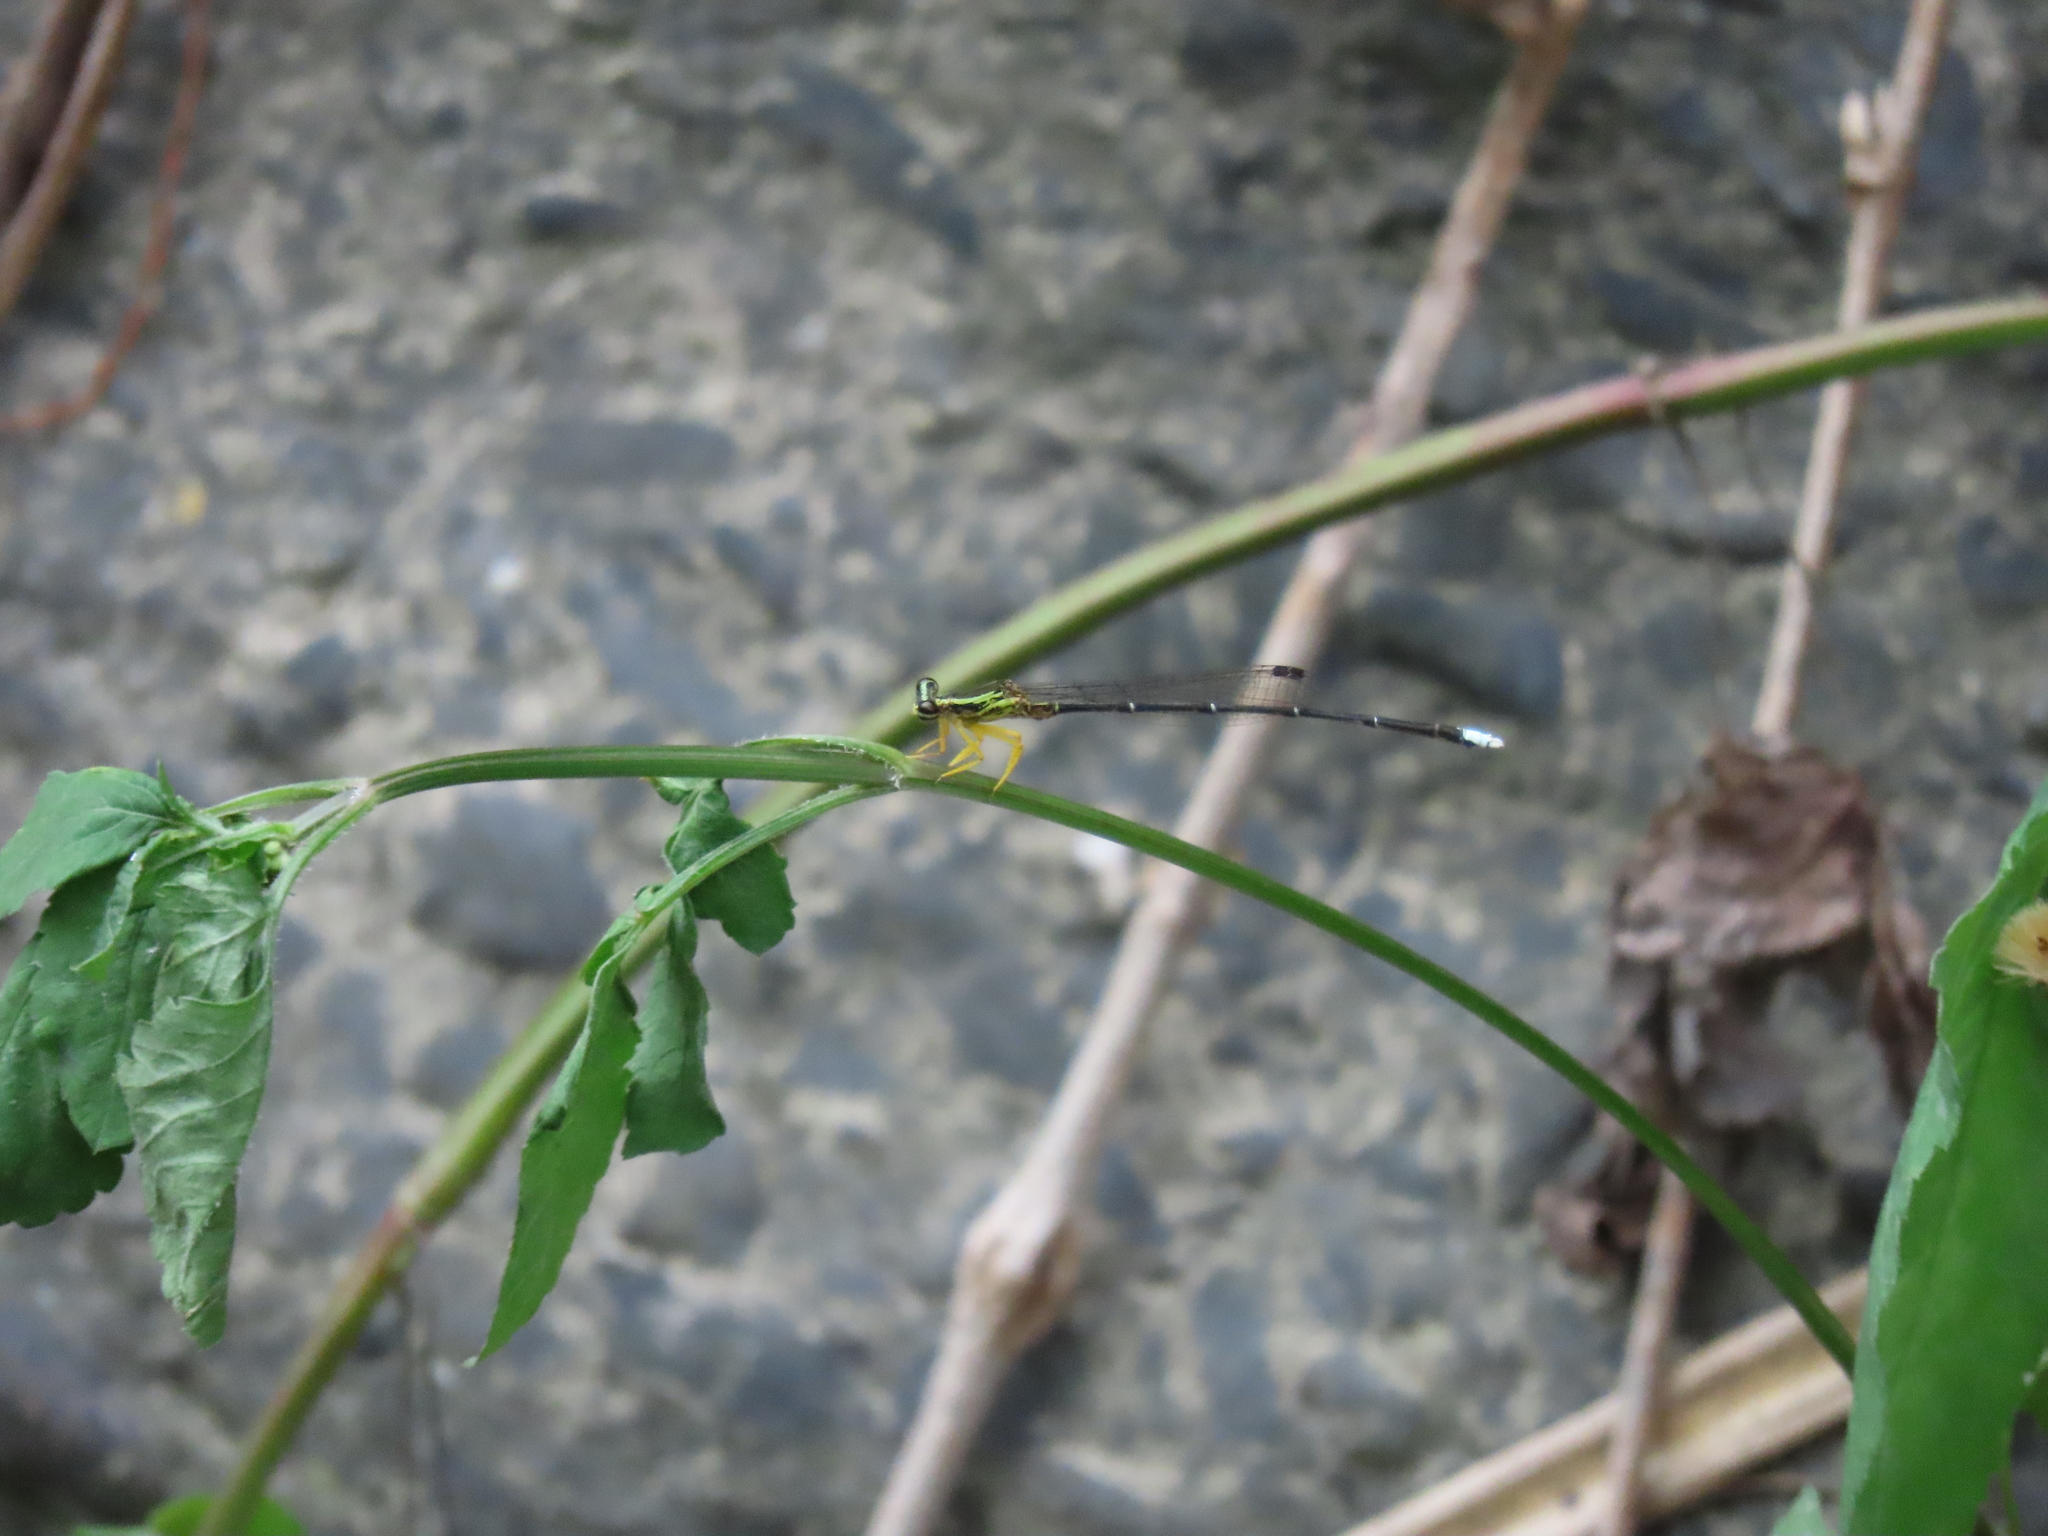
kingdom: Animalia
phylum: Arthropoda
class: Insecta
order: Odonata
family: Platycnemididae
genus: Copera
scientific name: Copera marginipes
